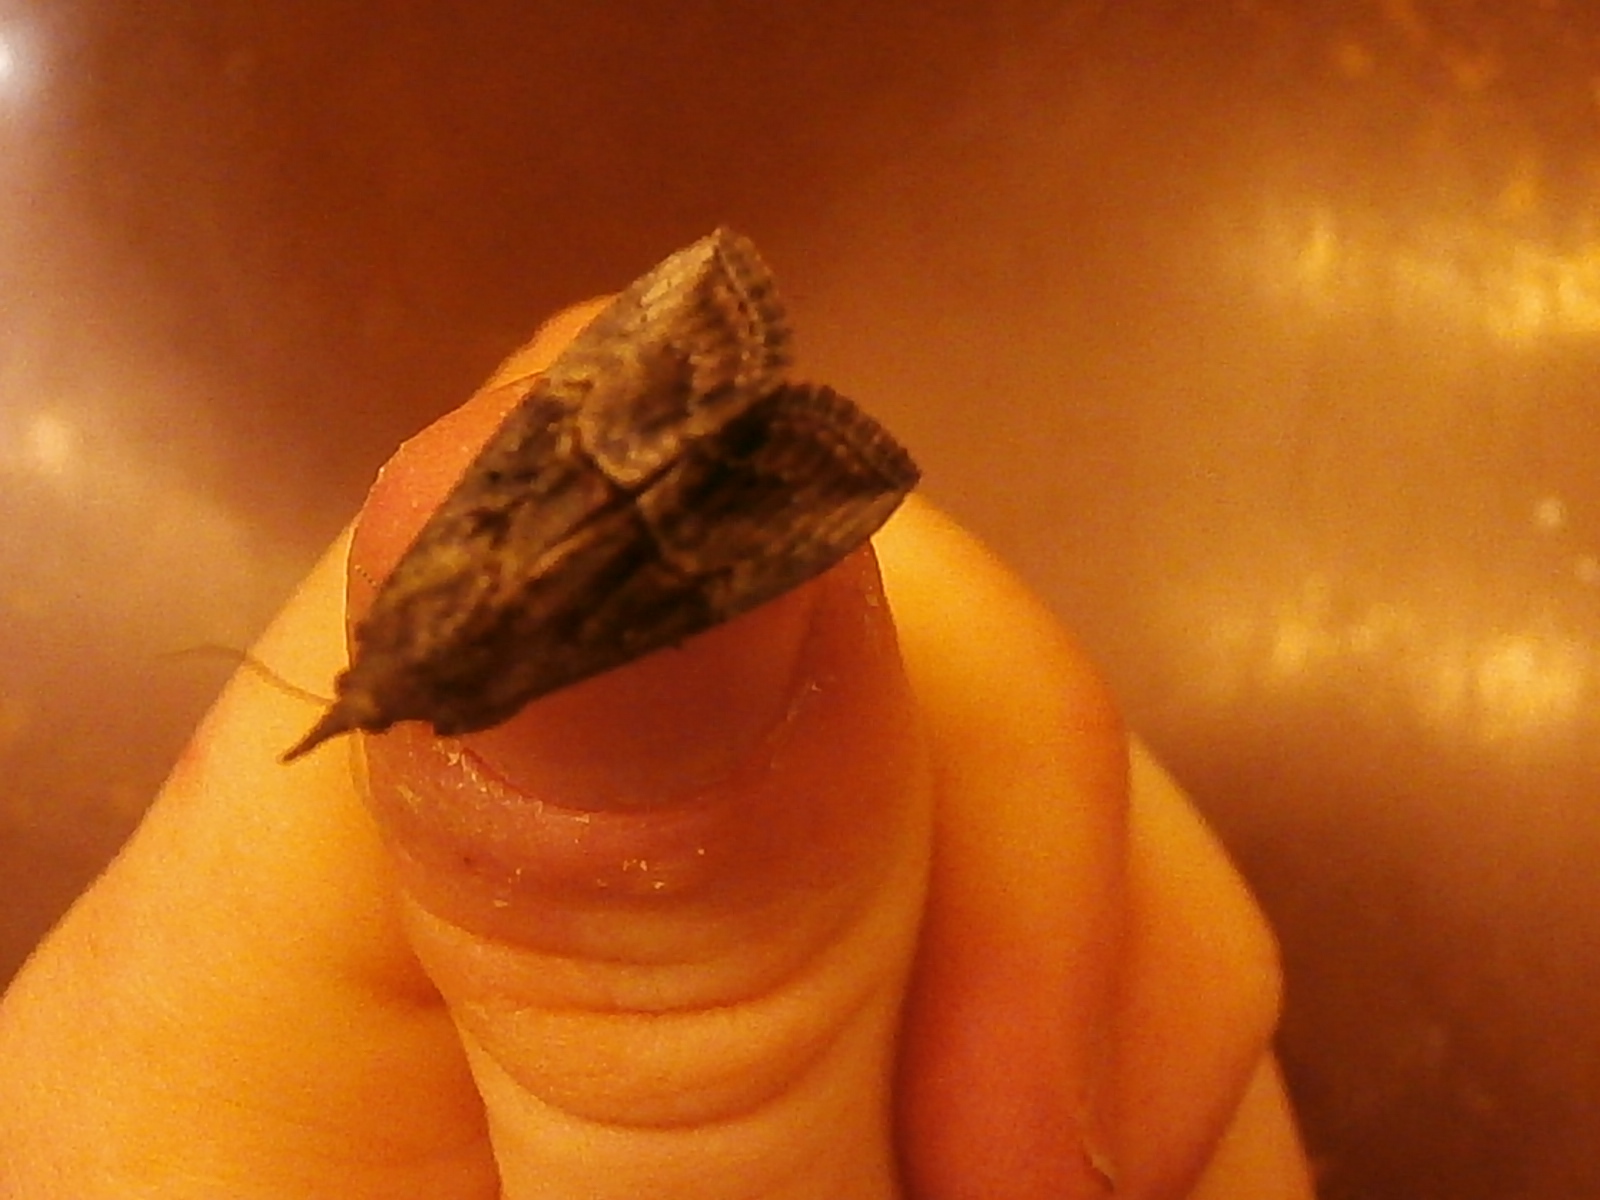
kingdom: Animalia
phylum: Arthropoda
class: Insecta
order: Lepidoptera
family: Erebidae
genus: Hypena
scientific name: Hypena scabra
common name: Green cloverworm
